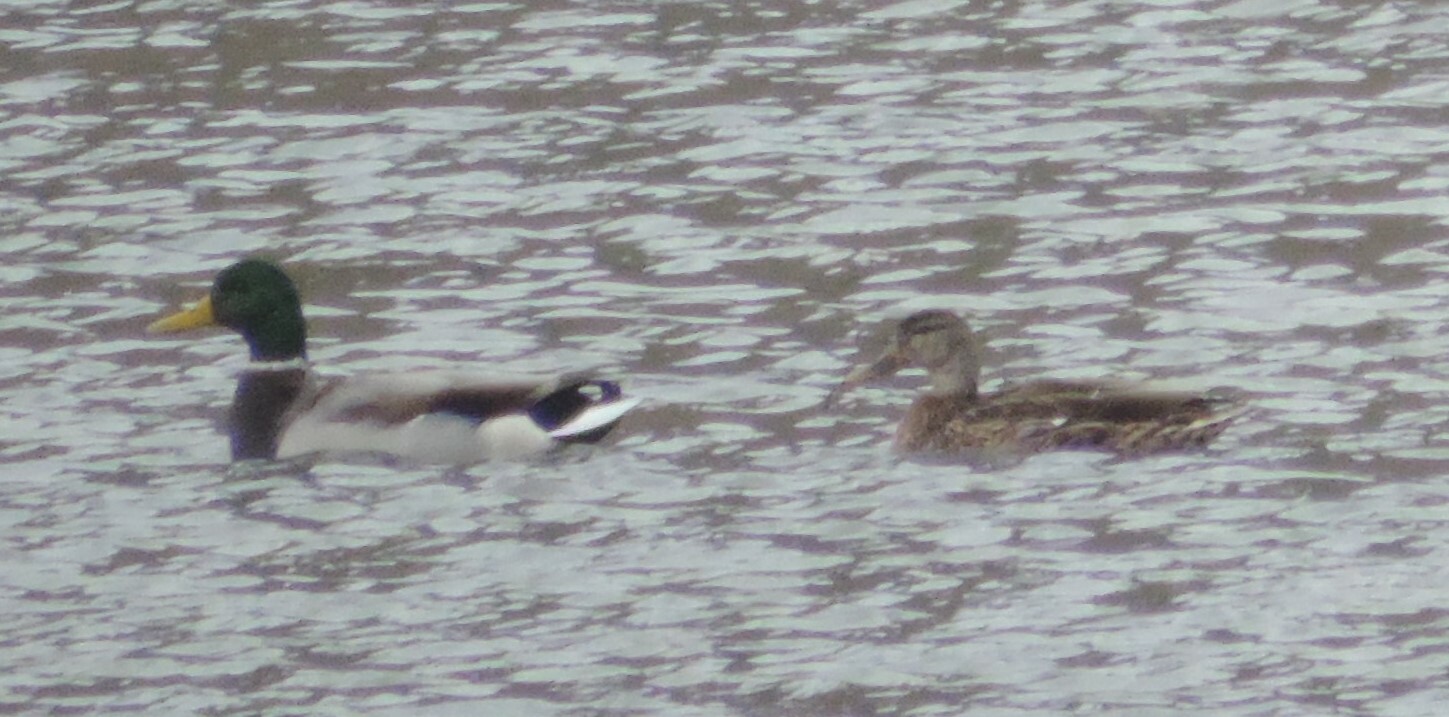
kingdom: Animalia
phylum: Chordata
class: Aves
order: Anseriformes
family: Anatidae
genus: Anas
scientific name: Anas platyrhynchos
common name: Mallard
